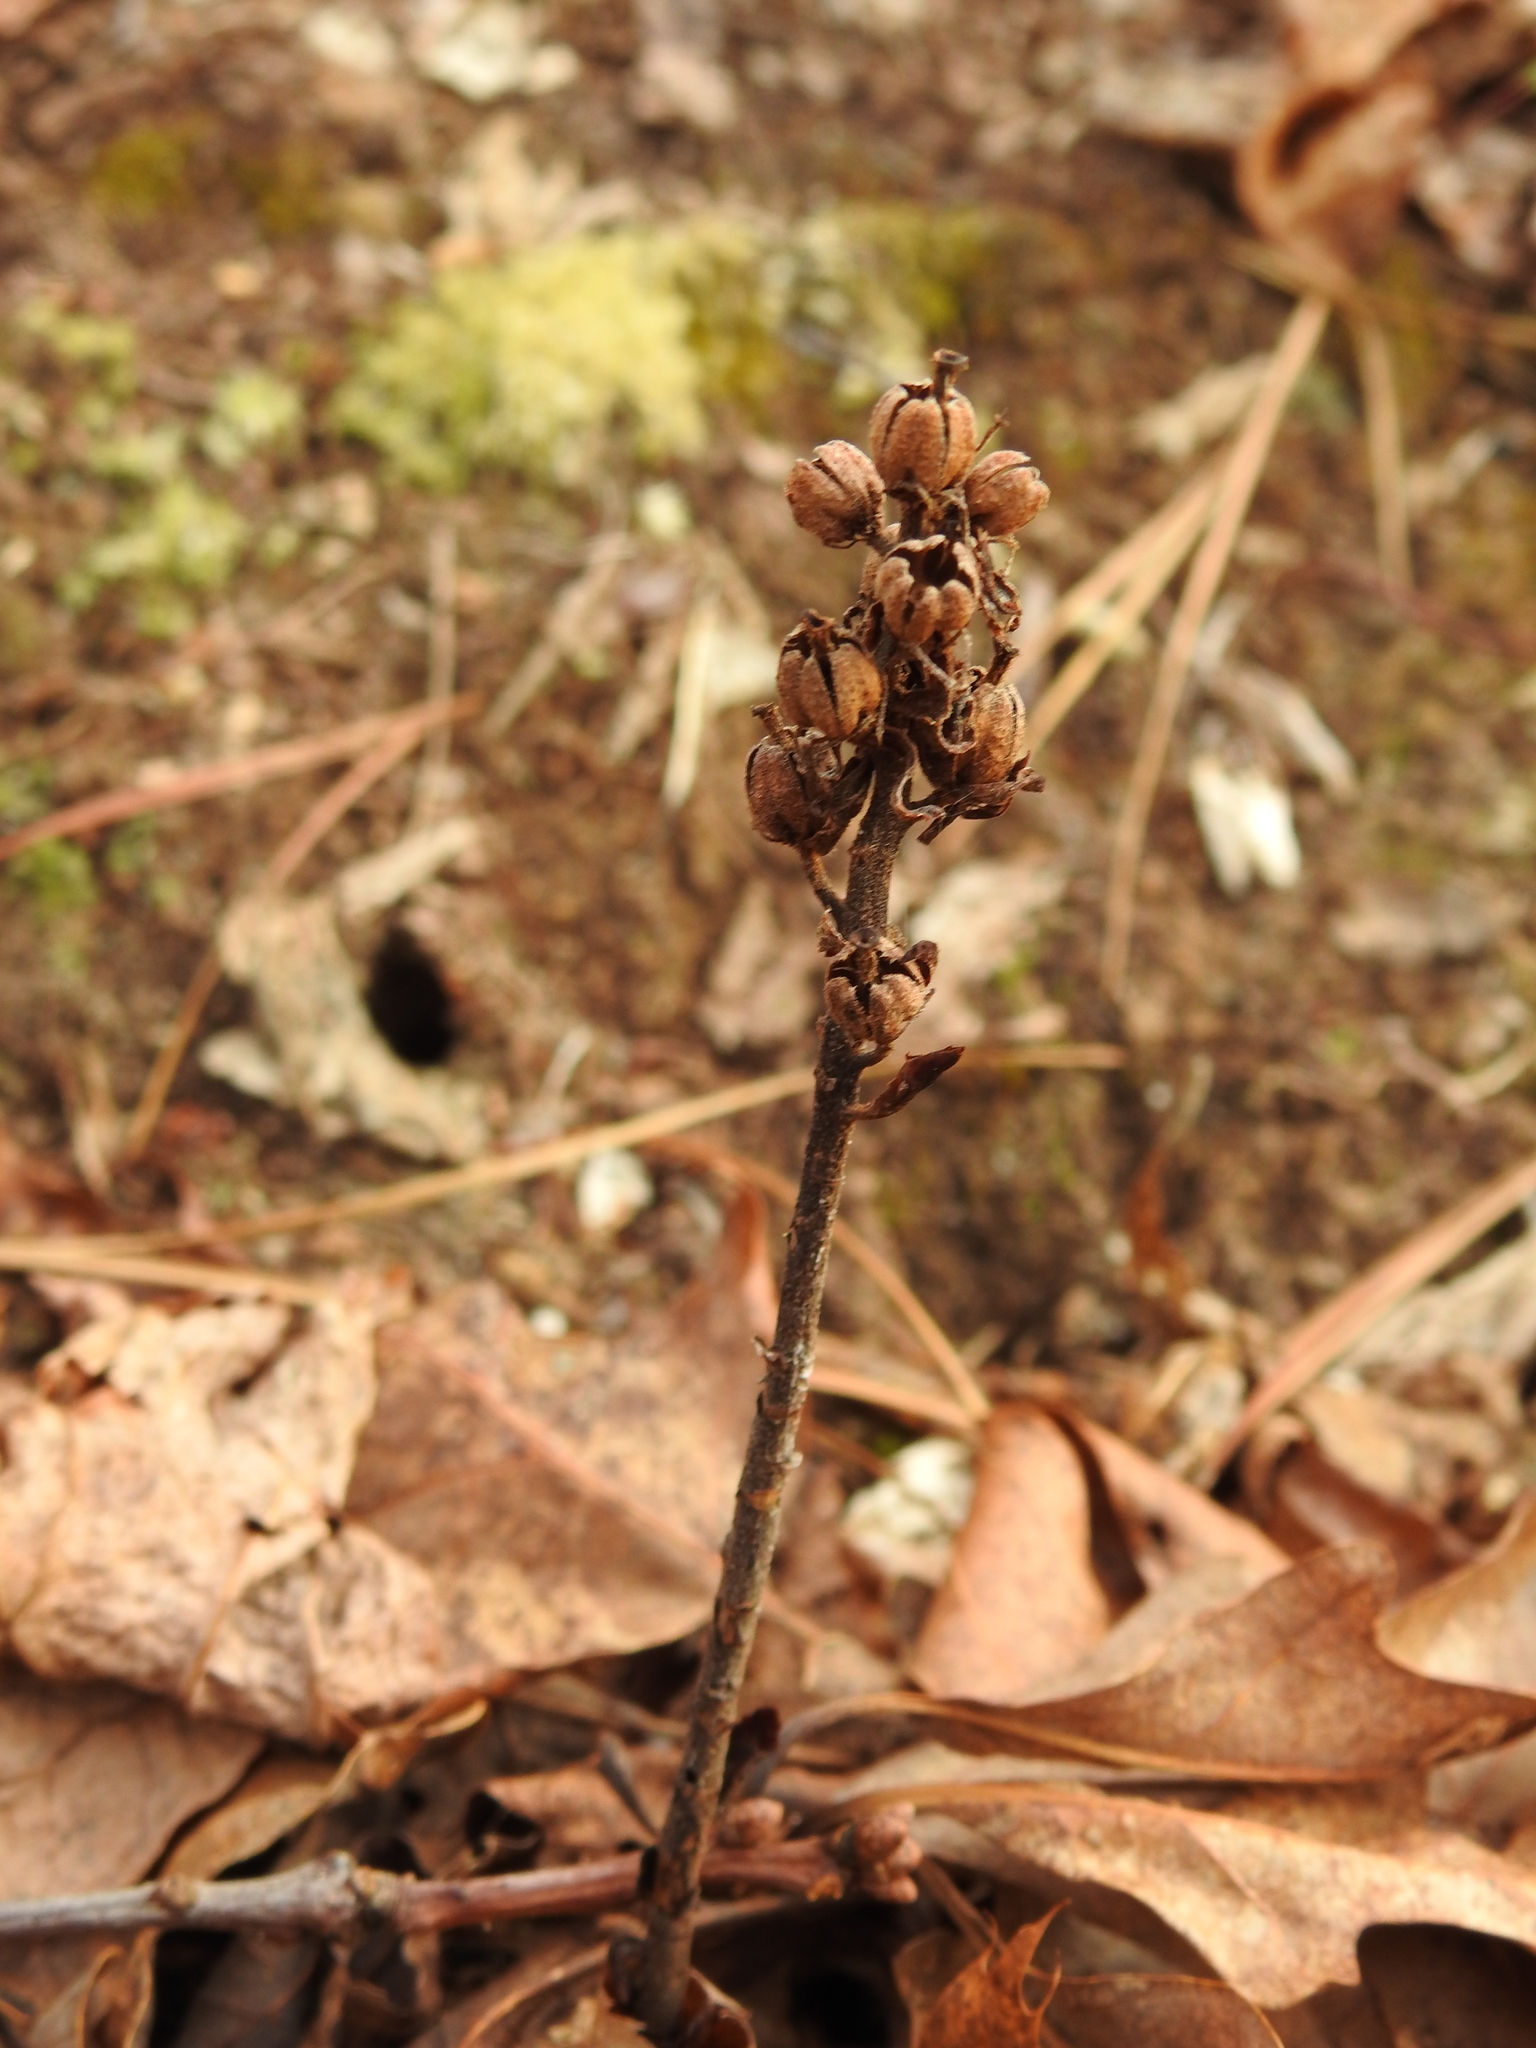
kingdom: Plantae
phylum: Tracheophyta
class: Magnoliopsida
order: Ericales
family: Ericaceae
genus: Hypopitys
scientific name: Hypopitys monotropa
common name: Yellow bird's-nest
